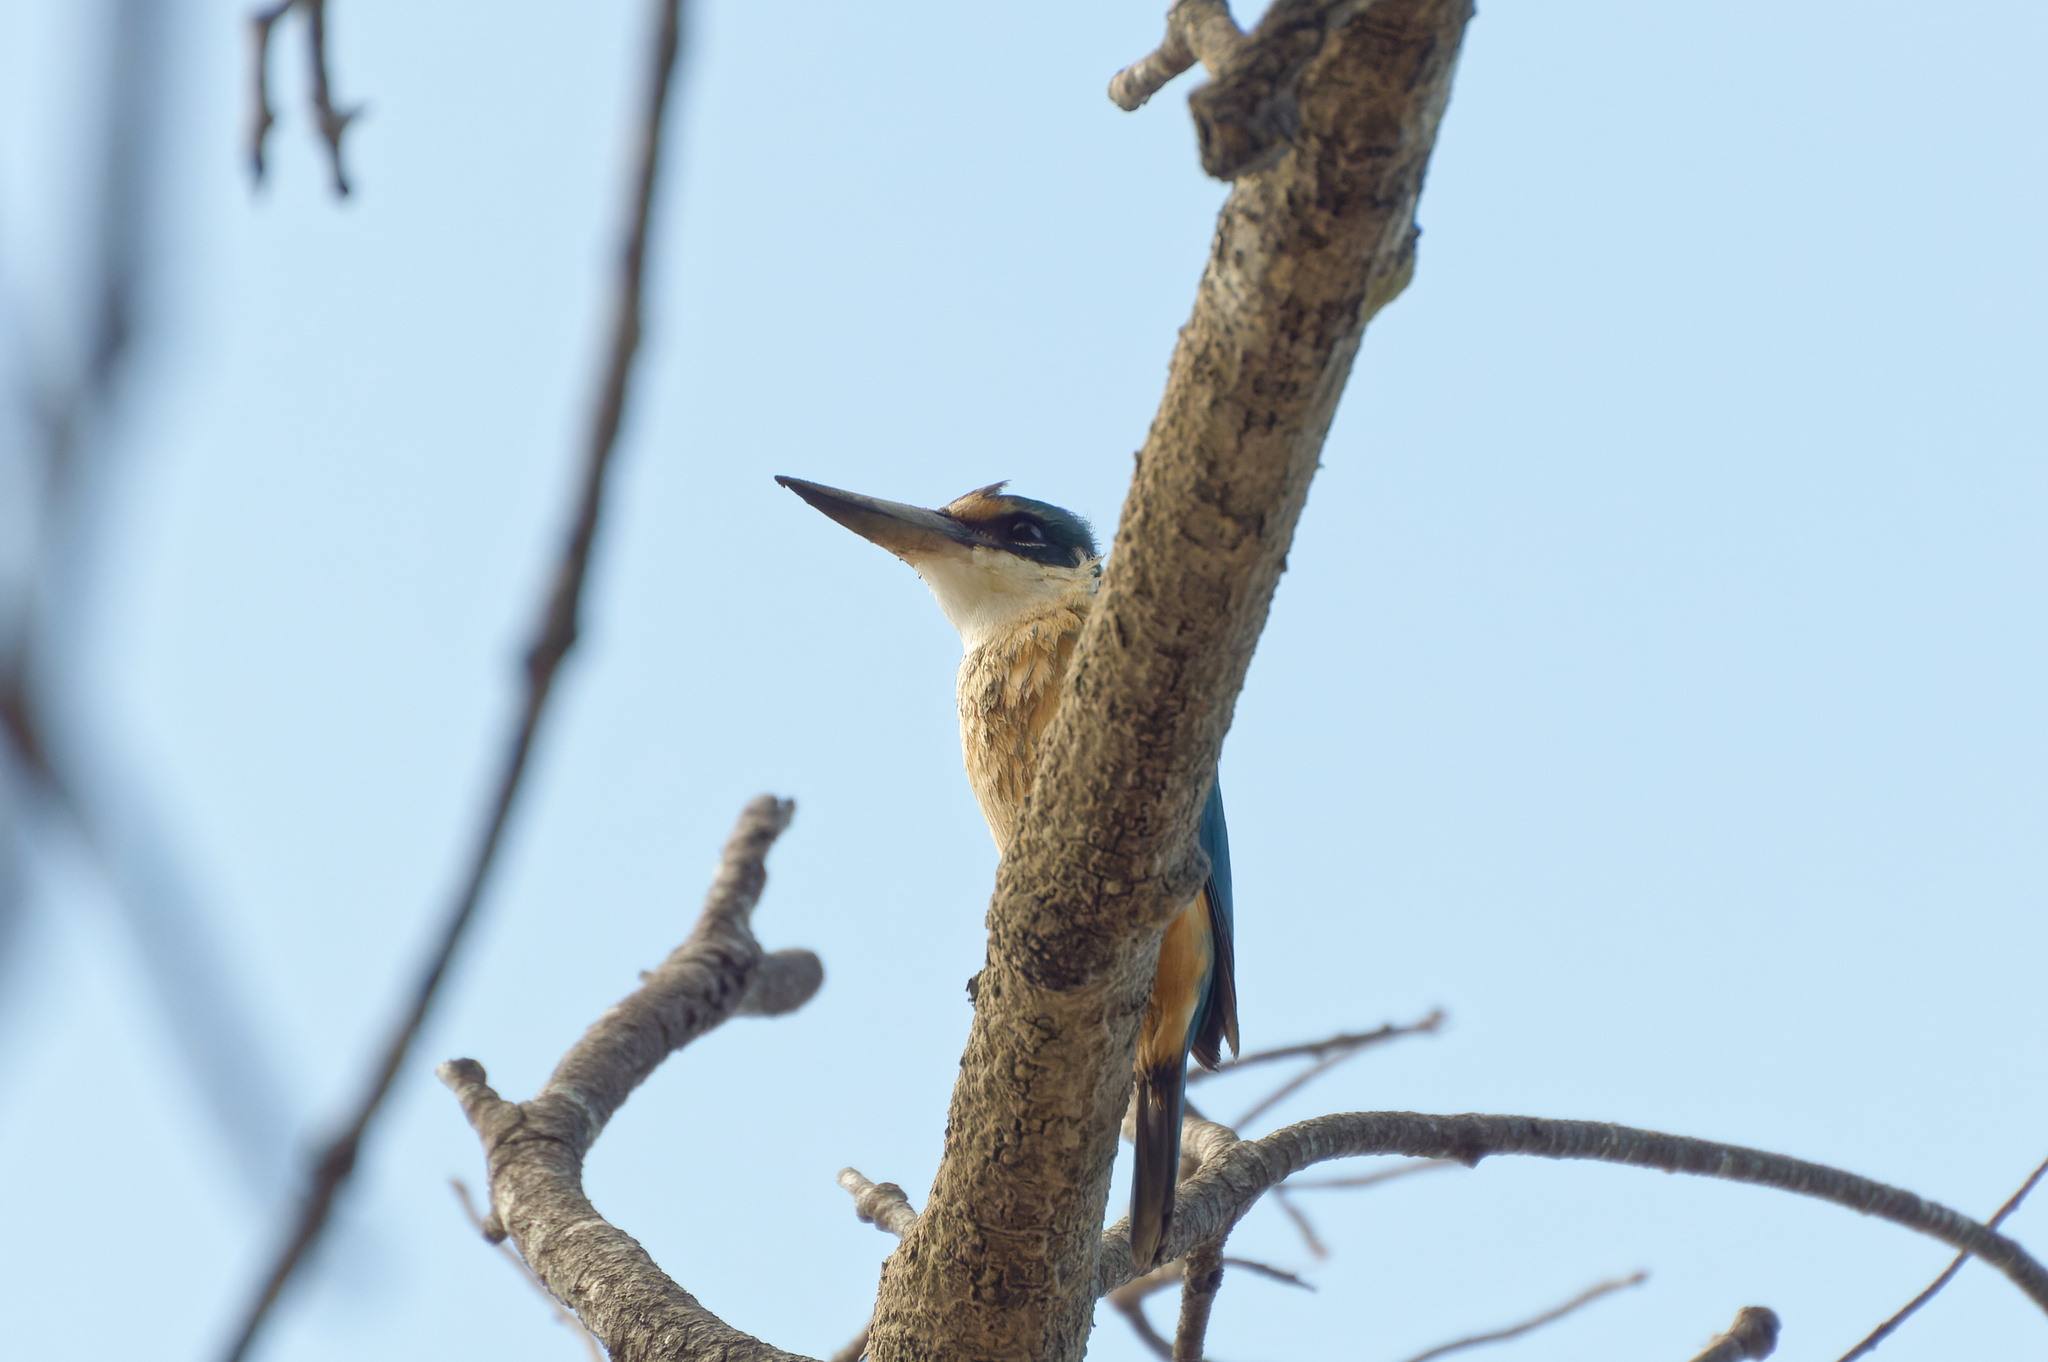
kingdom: Animalia
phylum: Chordata
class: Aves
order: Coraciiformes
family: Alcedinidae
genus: Todiramphus
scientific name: Todiramphus sanctus
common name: Sacred kingfisher
